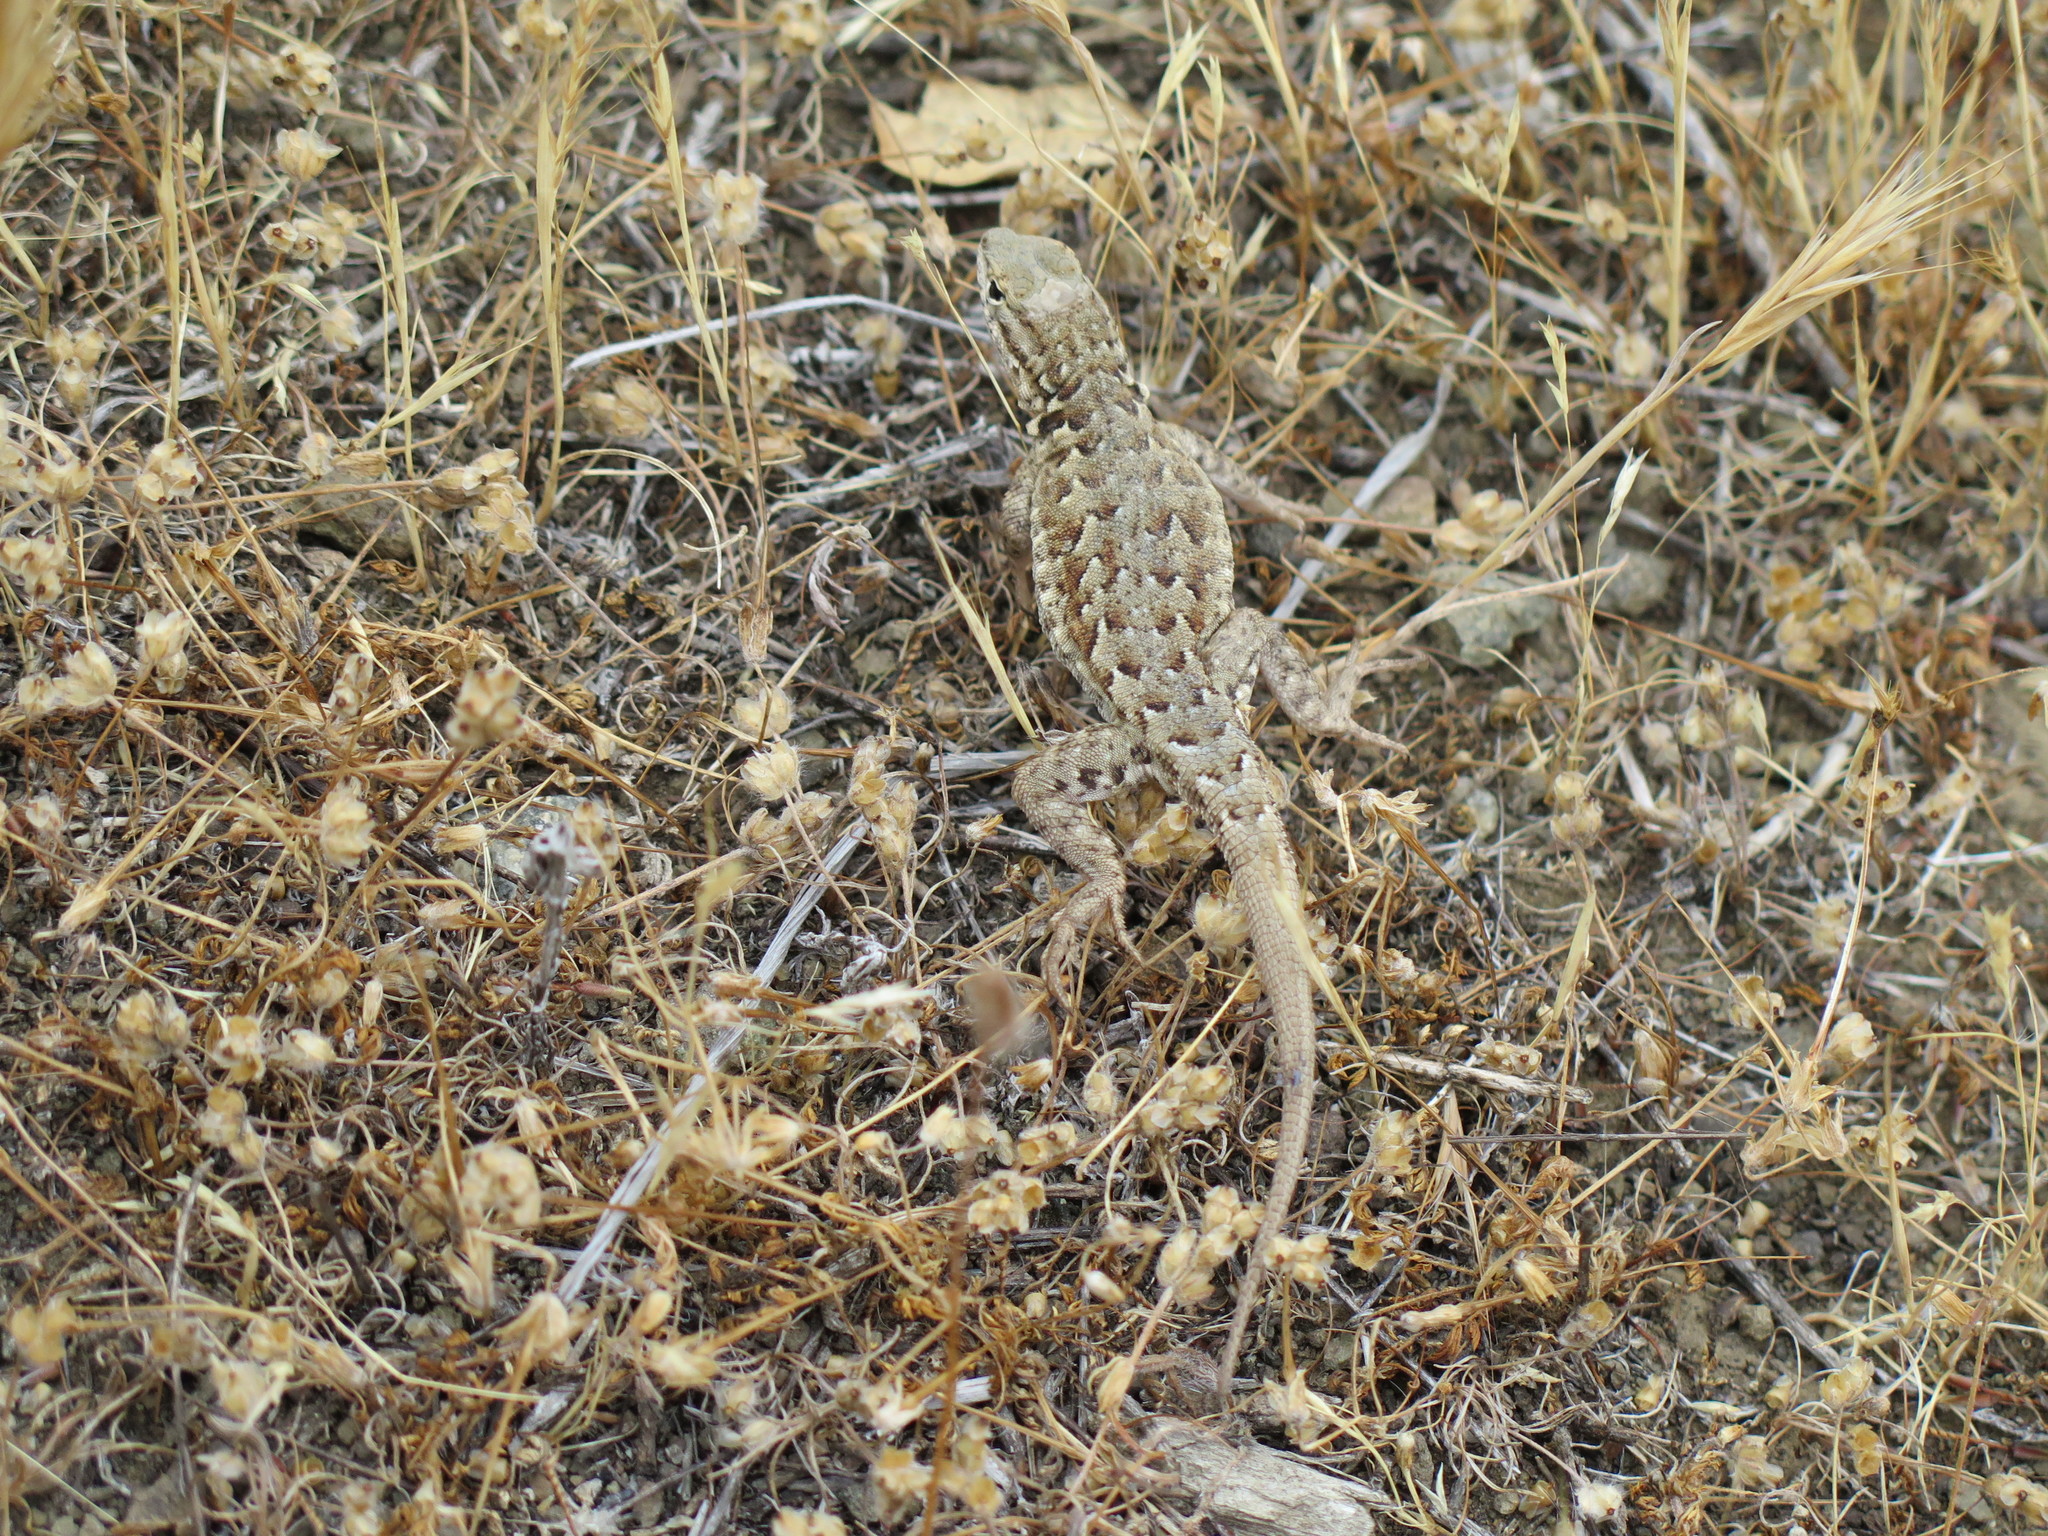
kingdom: Animalia
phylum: Chordata
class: Squamata
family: Phrynosomatidae
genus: Uta
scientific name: Uta stansburiana
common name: Side-blotched lizard
